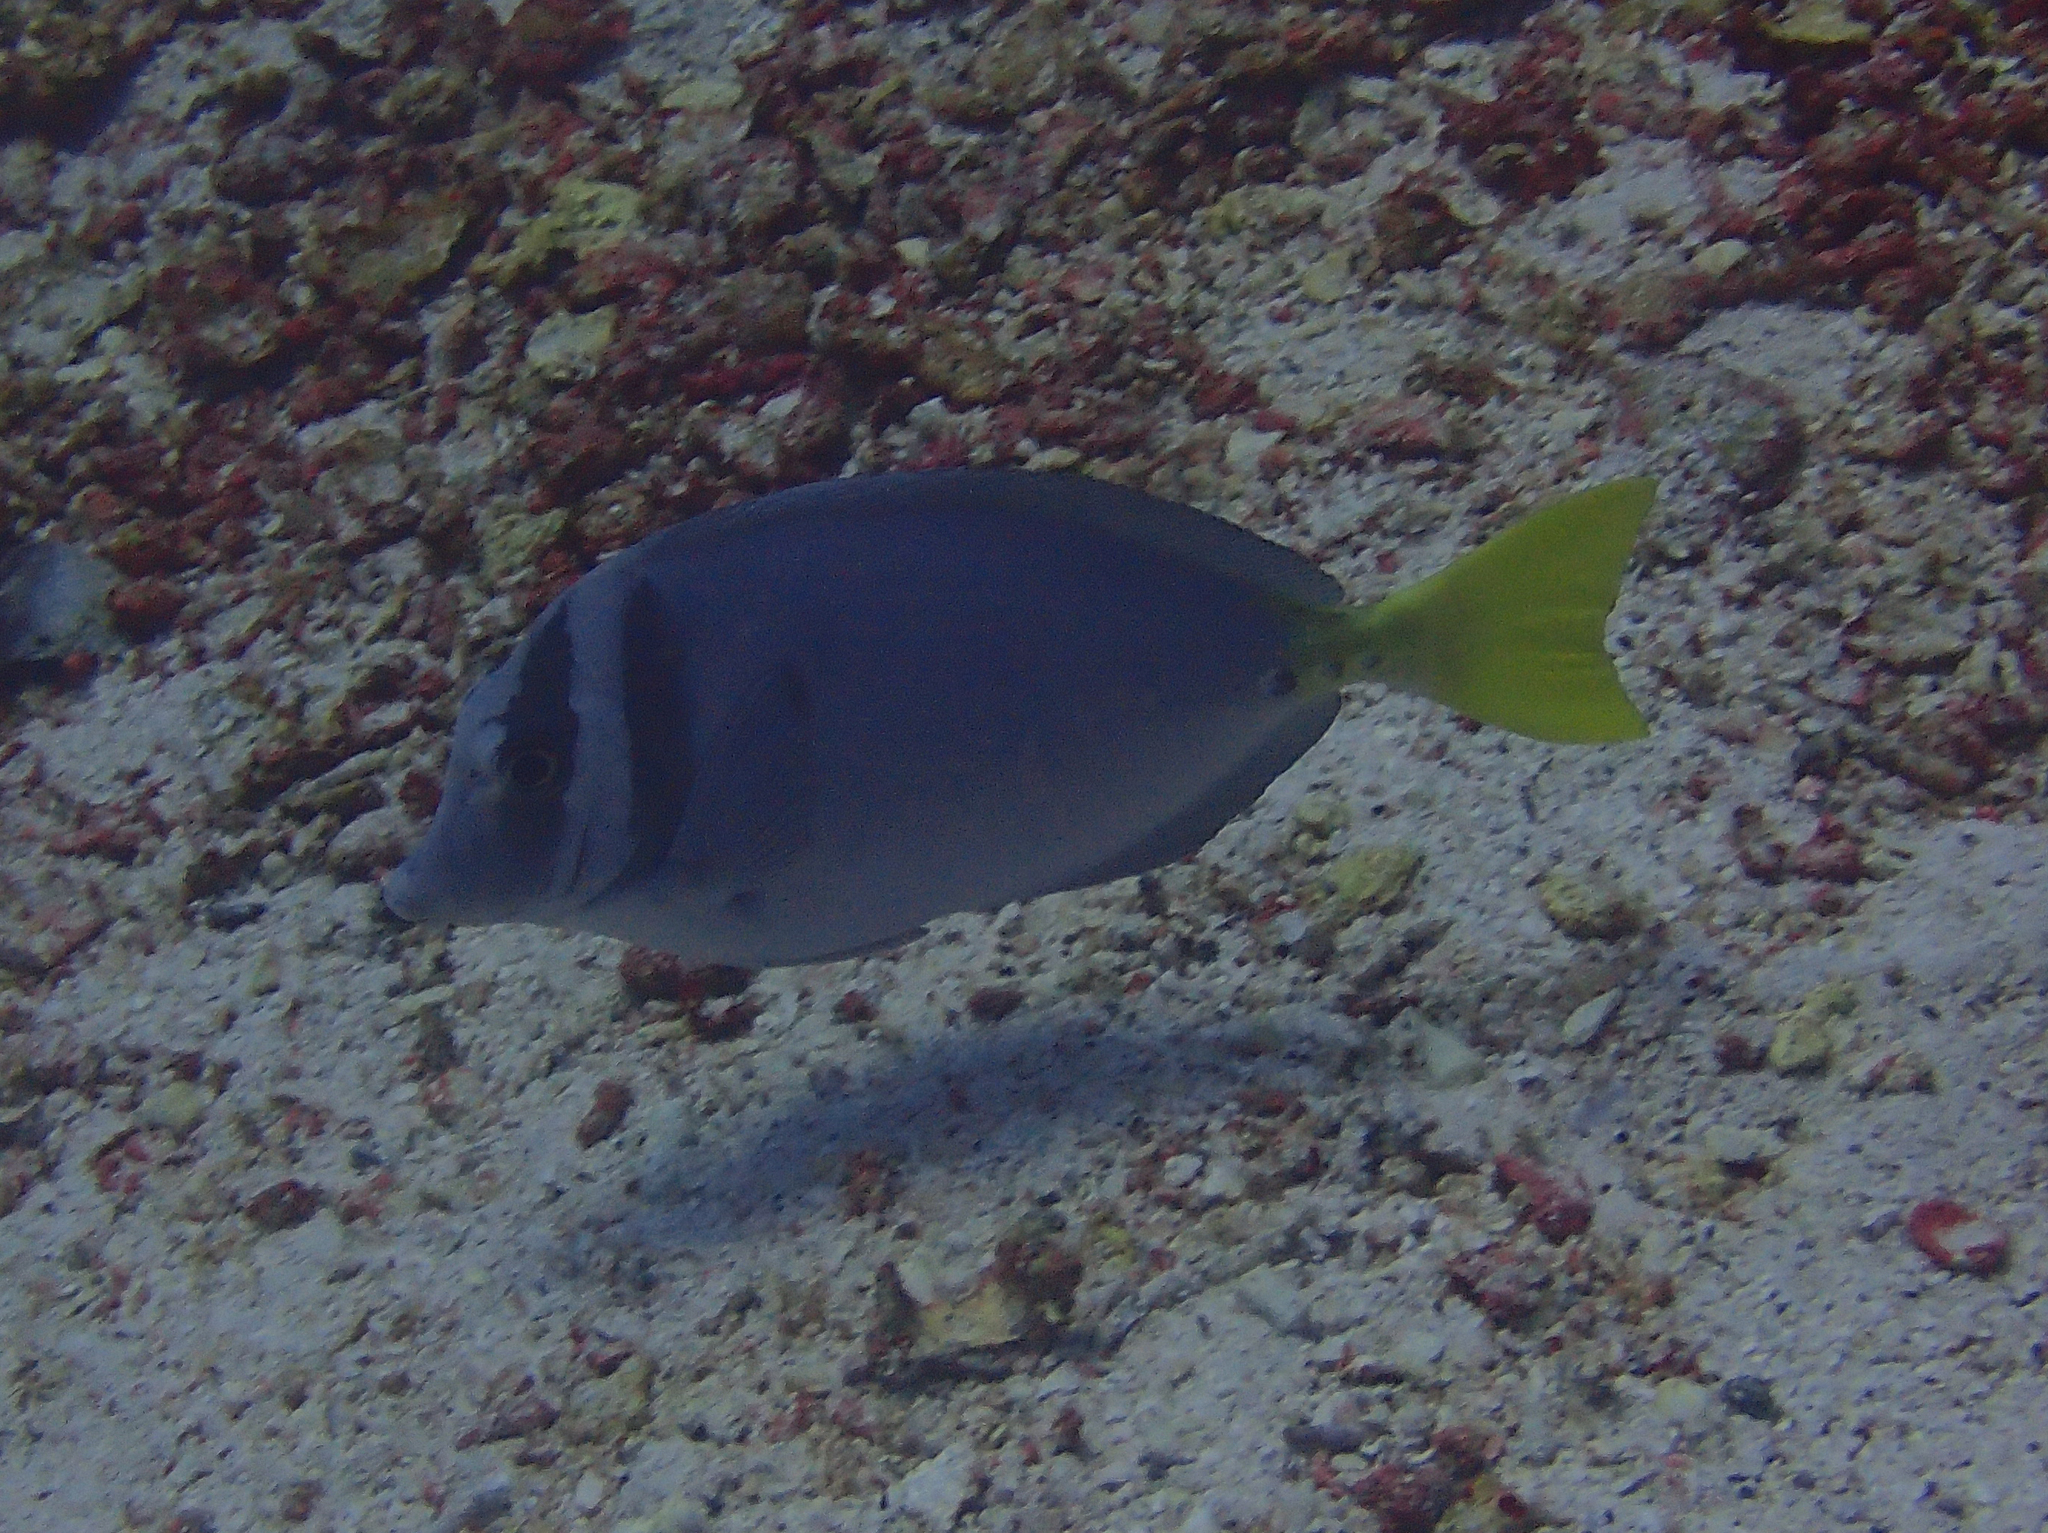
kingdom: Animalia
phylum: Chordata
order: Perciformes
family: Acanthuridae
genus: Prionurus
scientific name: Prionurus laticlavius
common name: Razor surgeonfish
